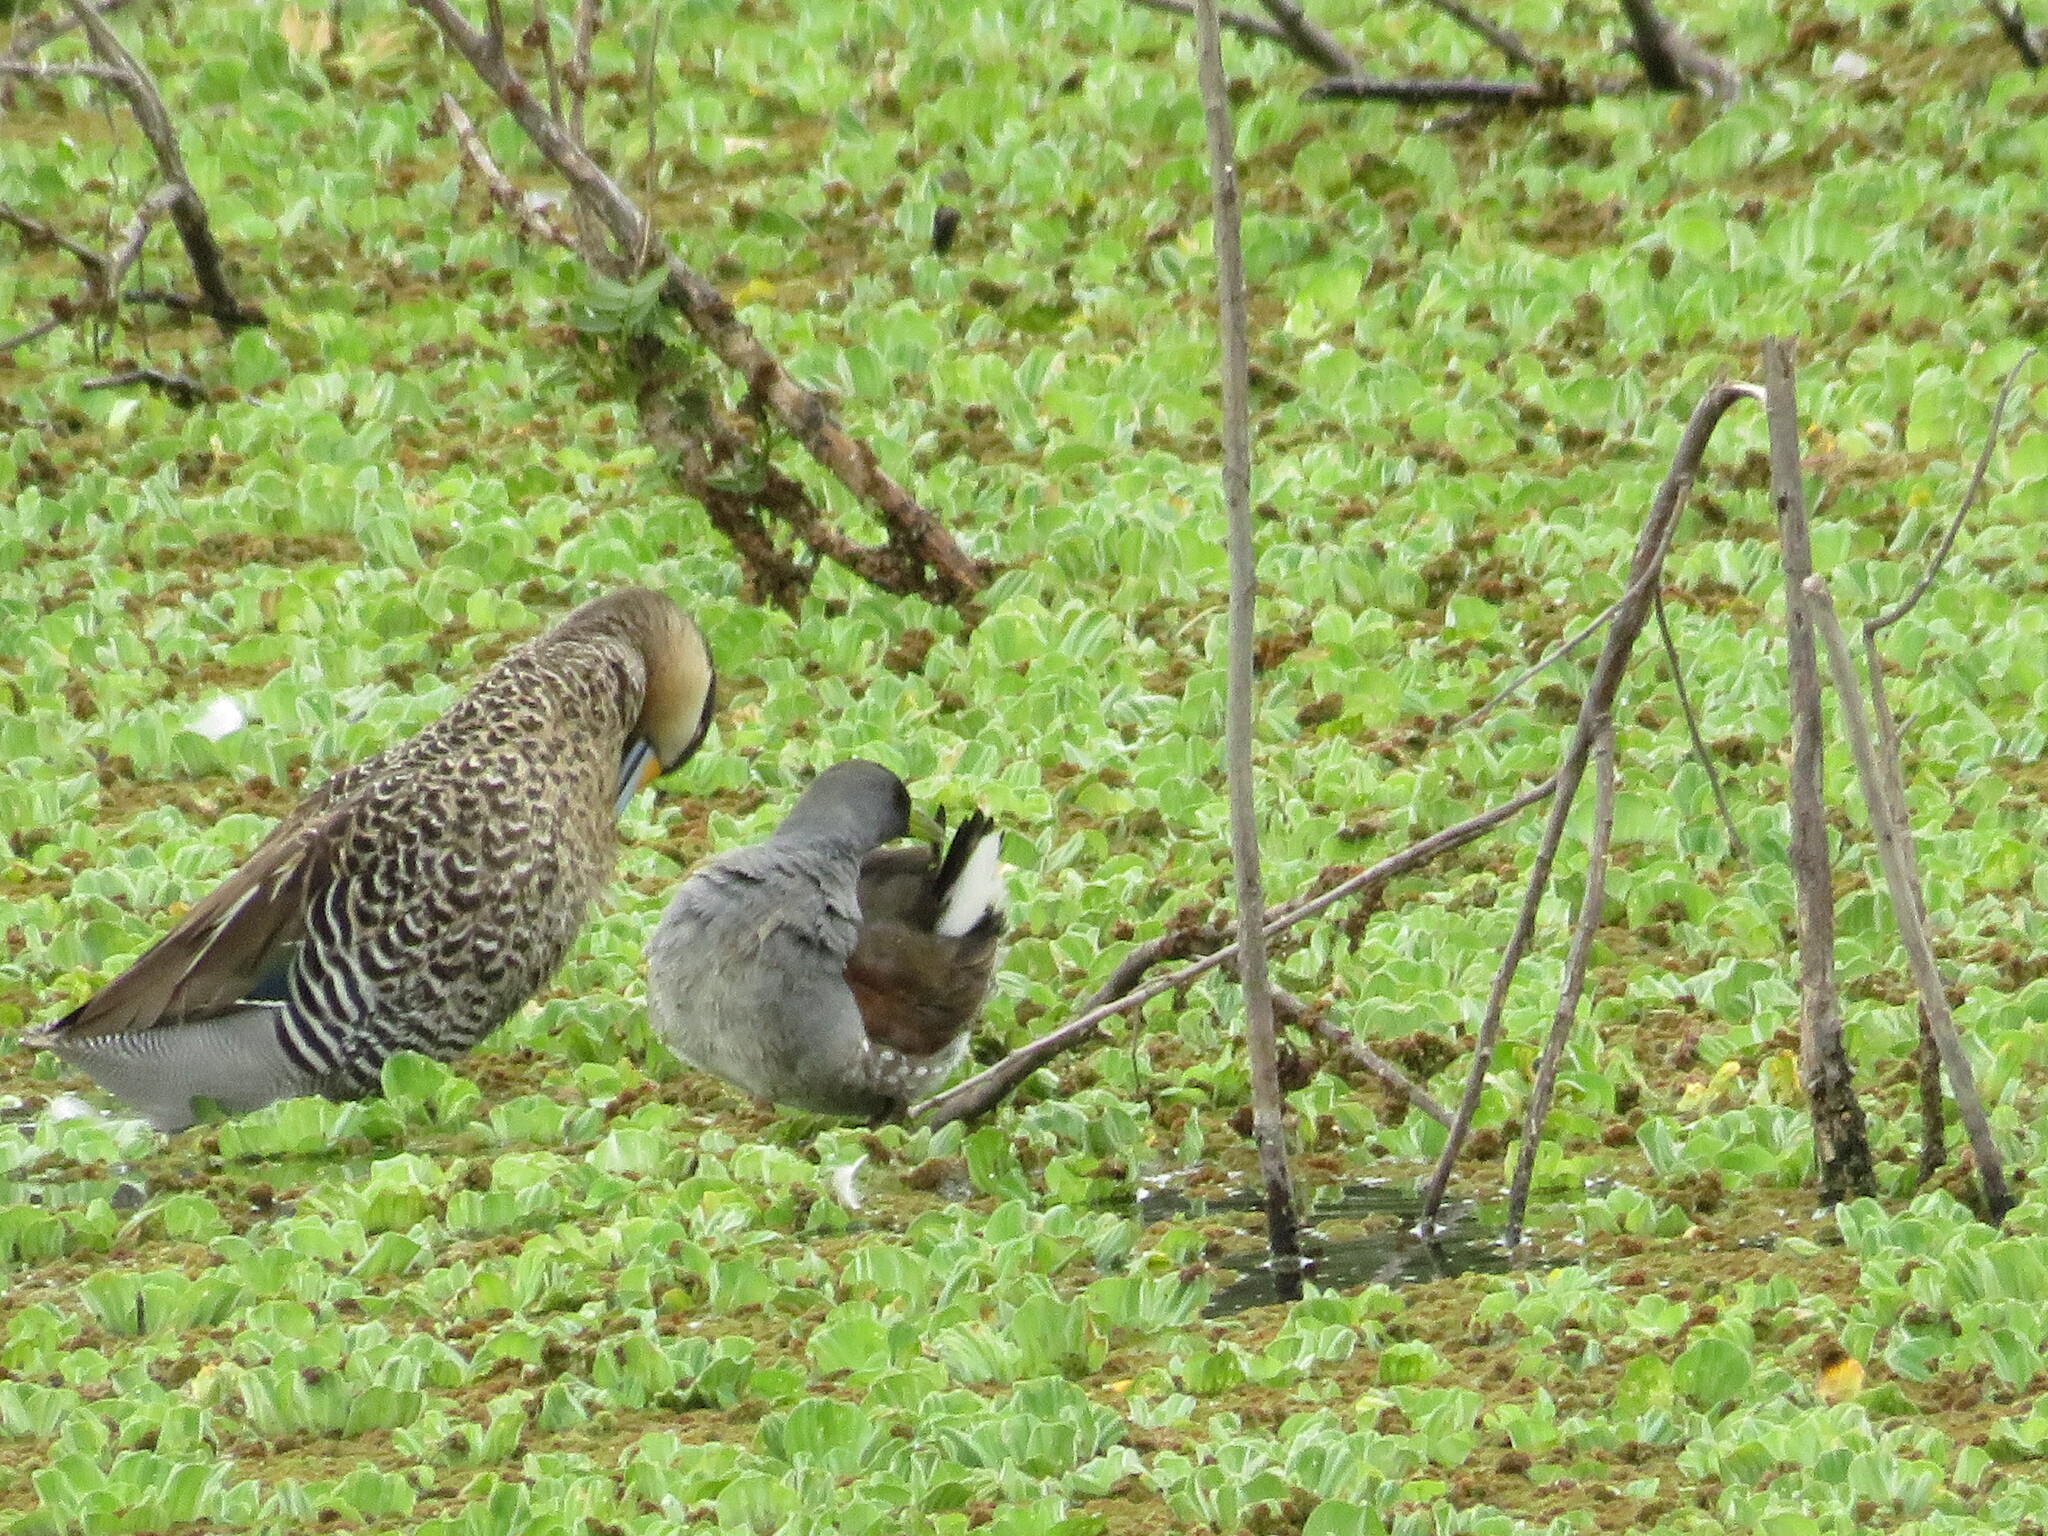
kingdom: Animalia
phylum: Chordata
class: Aves
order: Gruiformes
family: Rallidae
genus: Gallinula
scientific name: Gallinula melanops
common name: Spot-flanked gallinule
